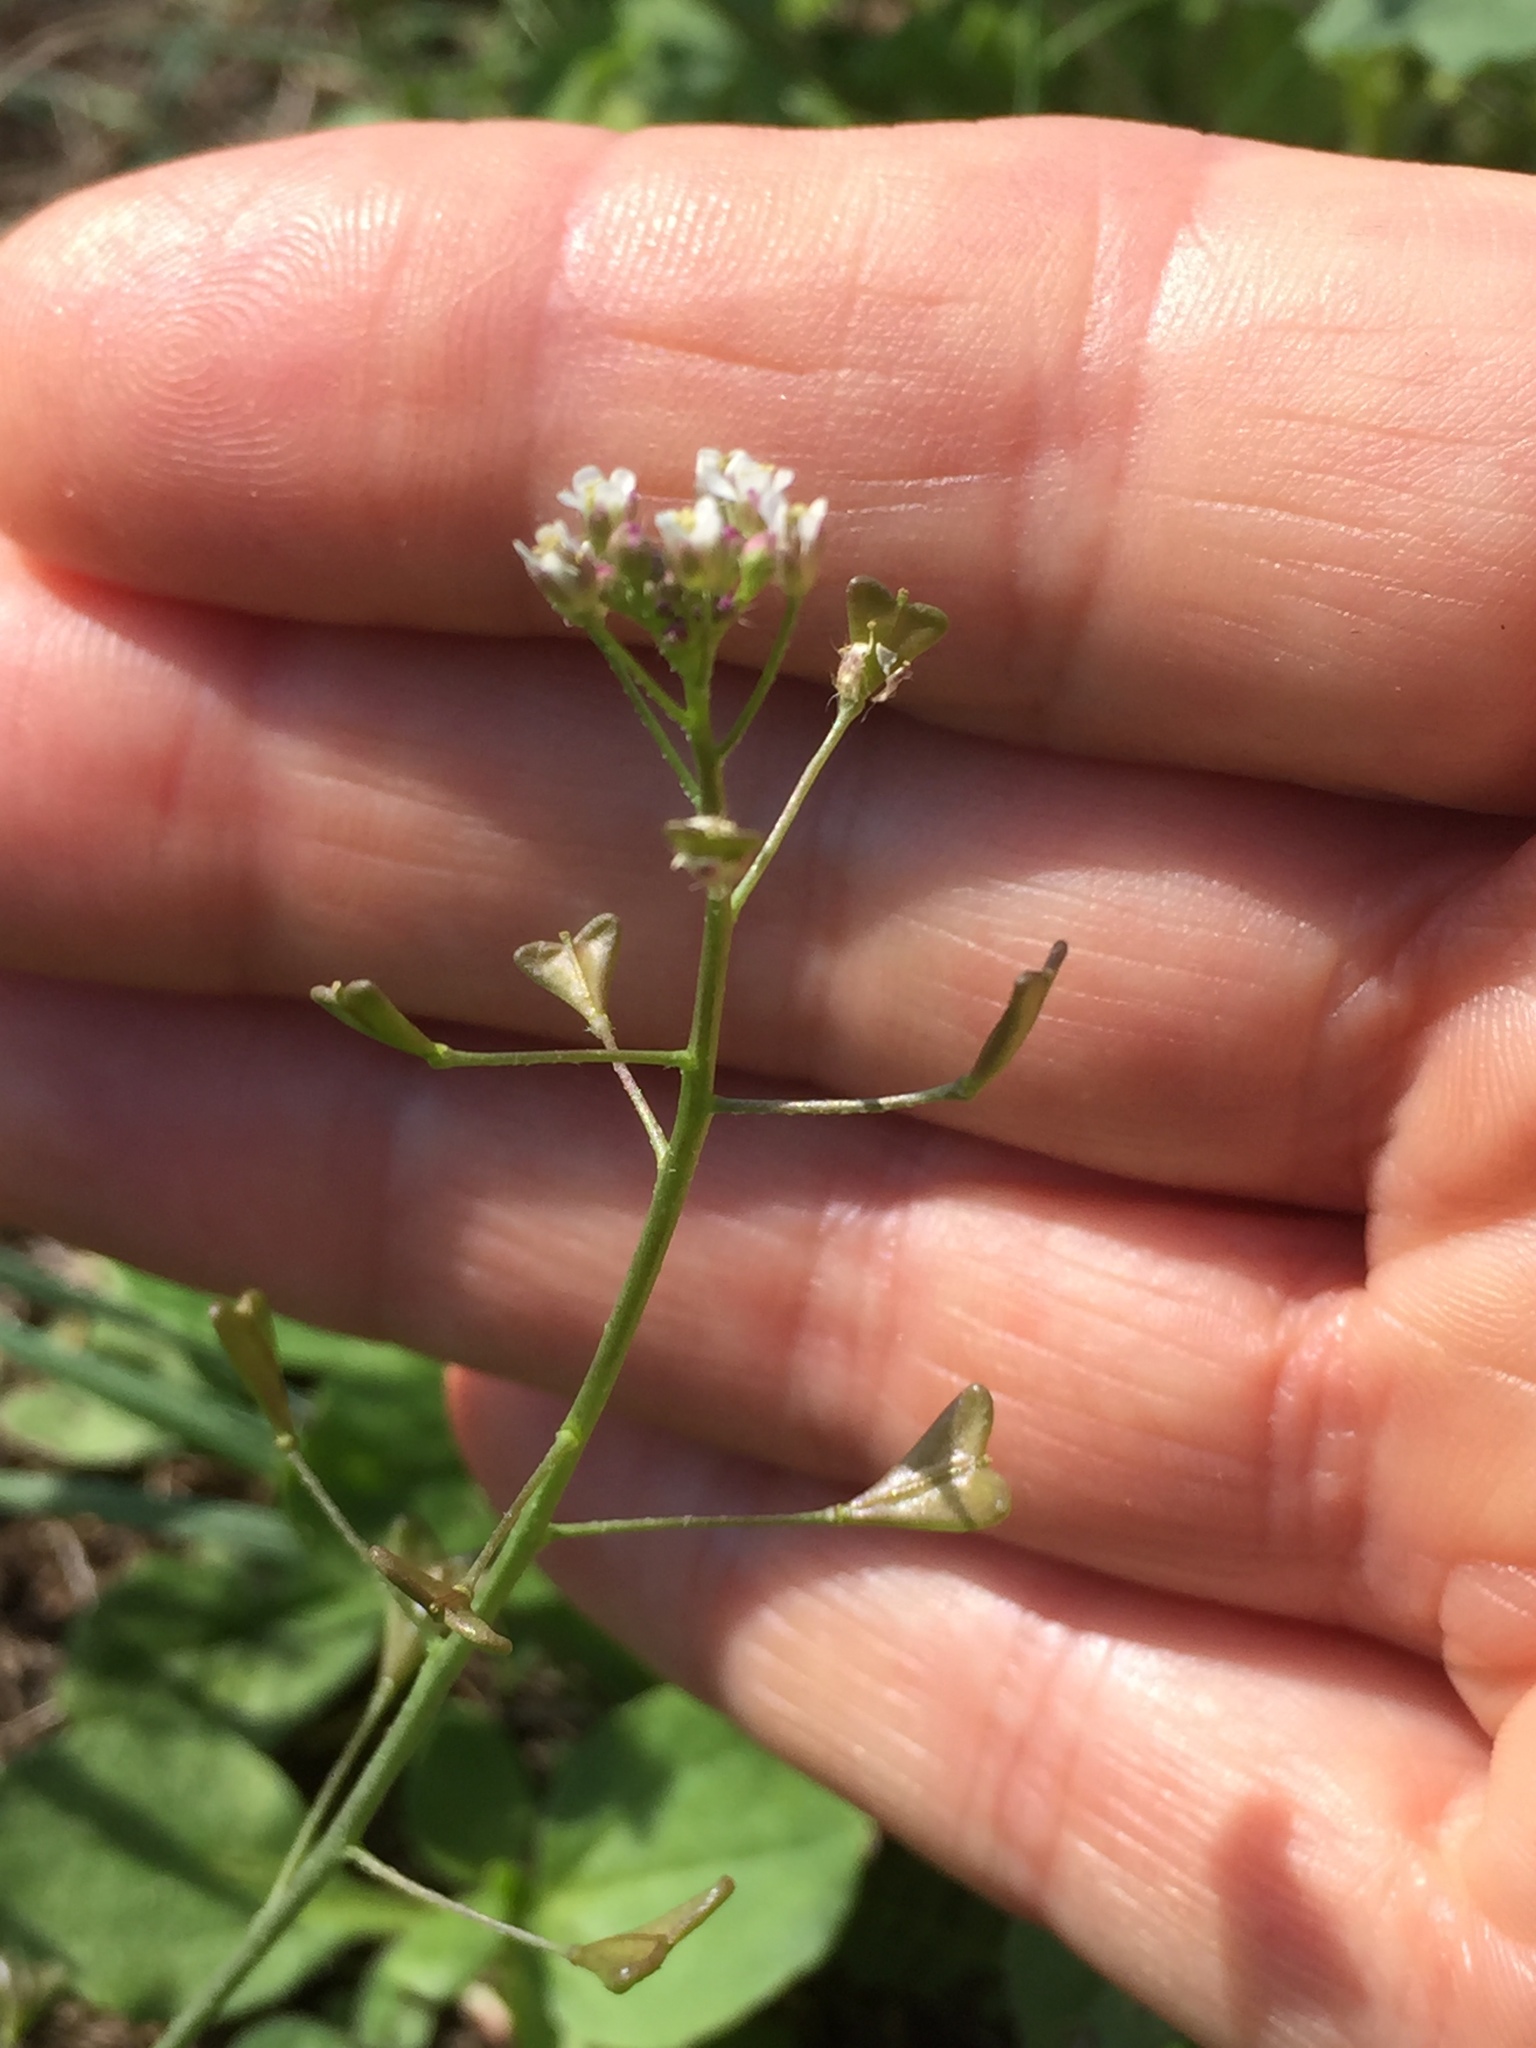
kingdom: Plantae
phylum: Tracheophyta
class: Magnoliopsida
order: Brassicales
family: Brassicaceae
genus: Capsella
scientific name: Capsella bursa-pastoris
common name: Shepherd's purse
